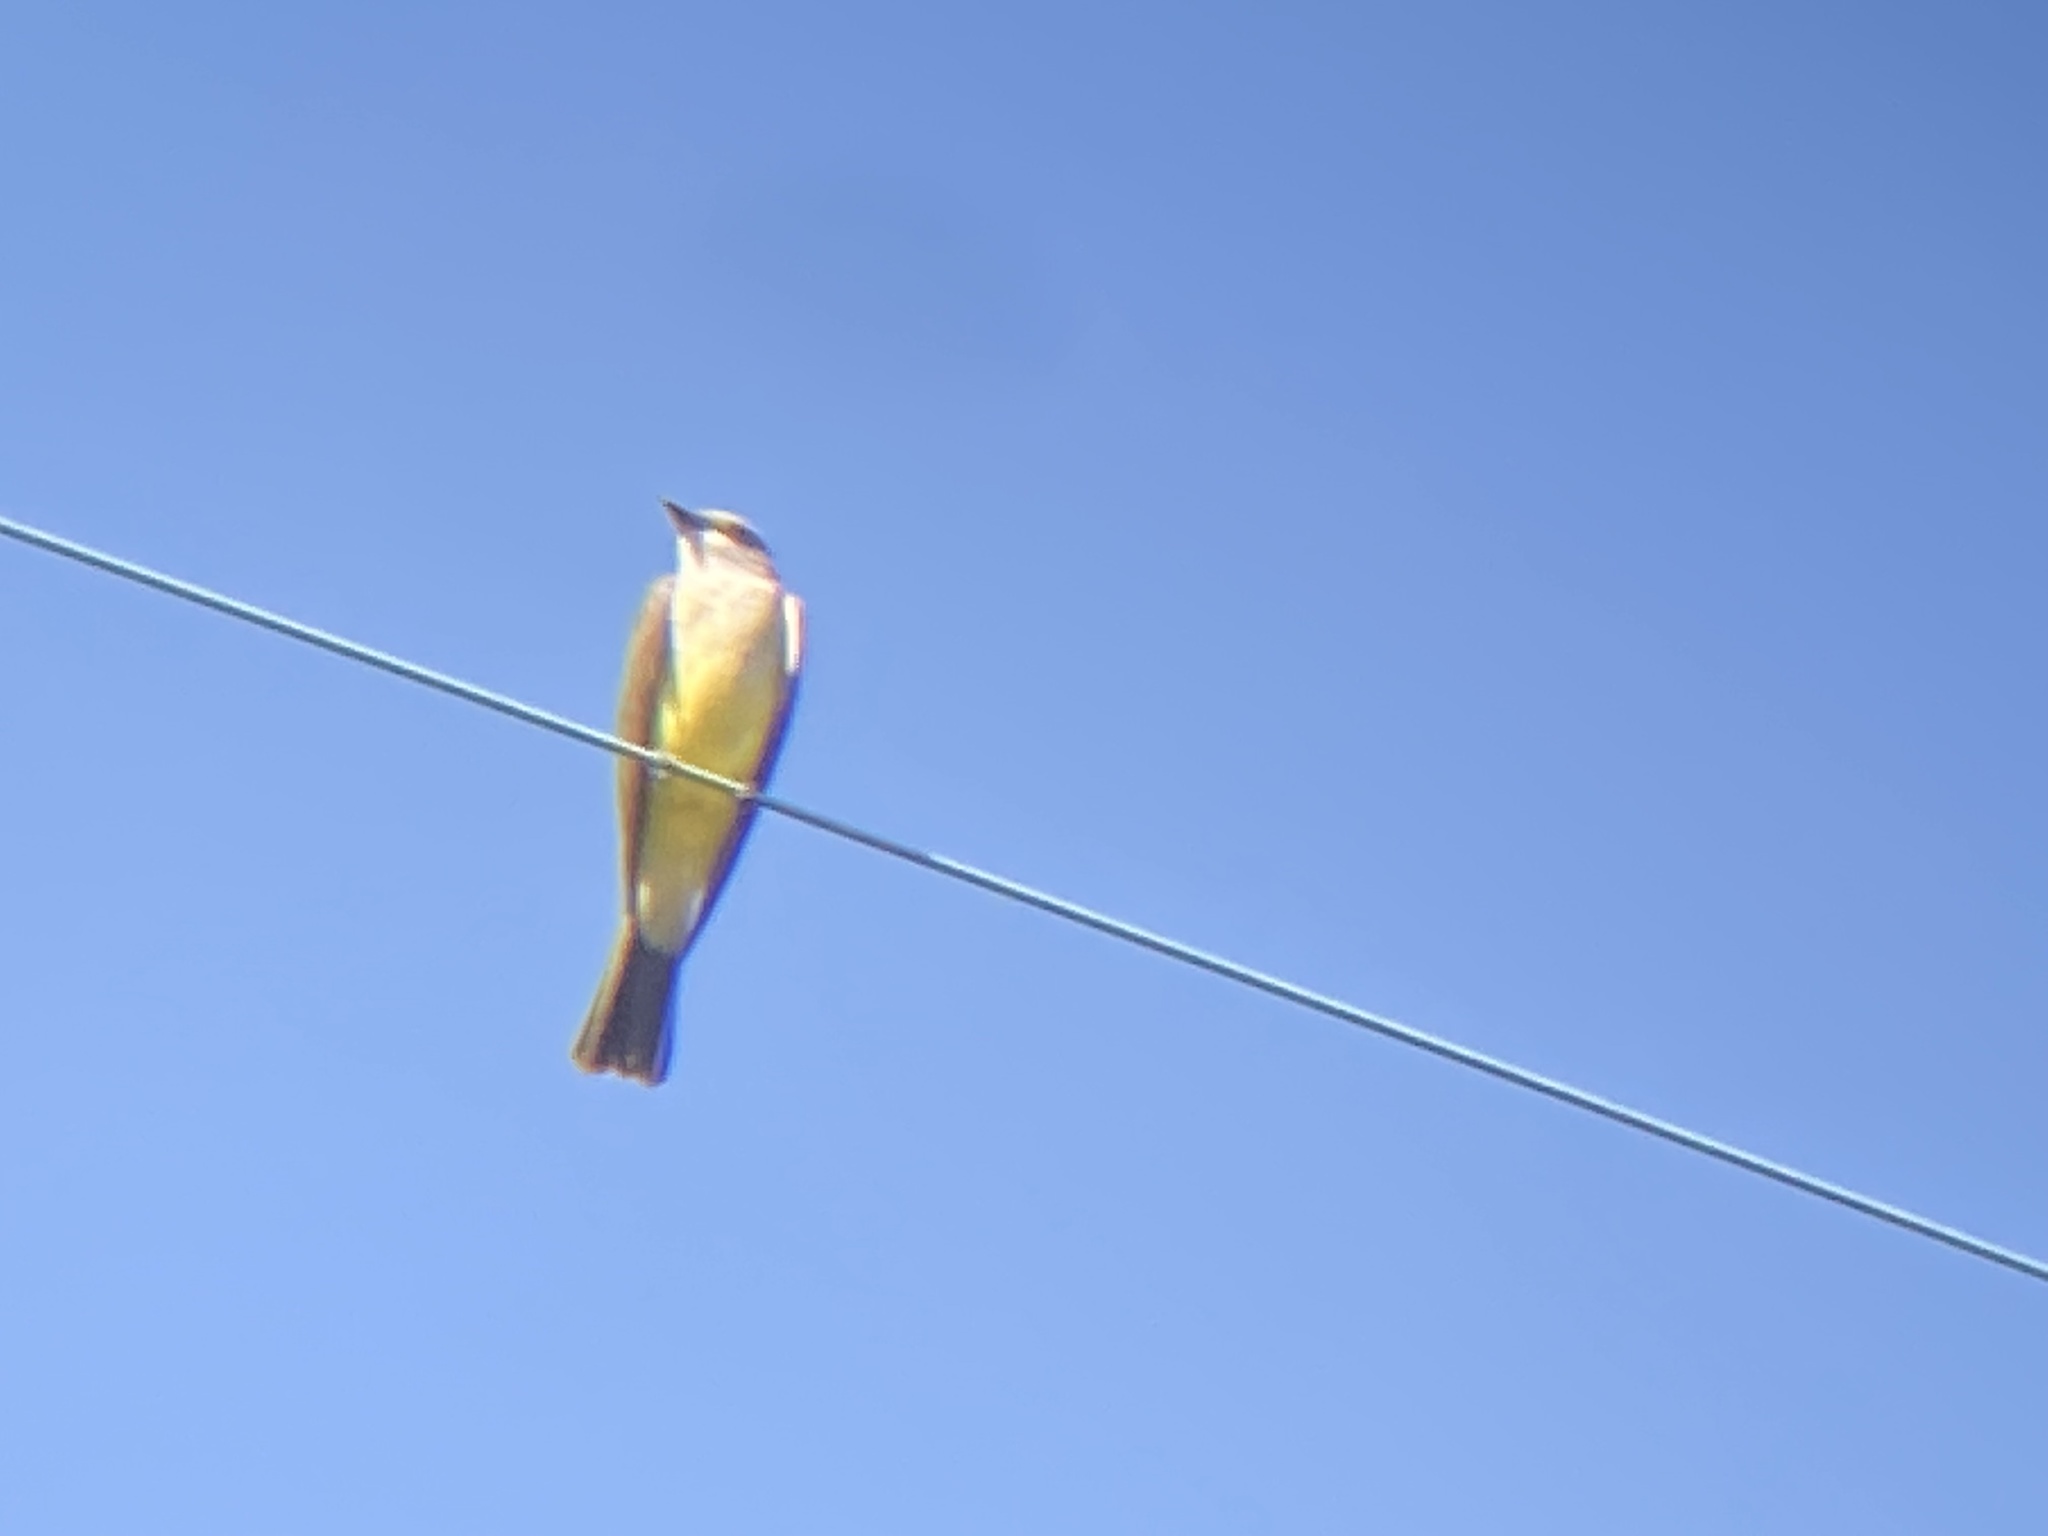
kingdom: Animalia
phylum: Chordata
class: Aves
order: Passeriformes
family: Tyrannidae
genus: Tyrannus
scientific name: Tyrannus verticalis
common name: Western kingbird
